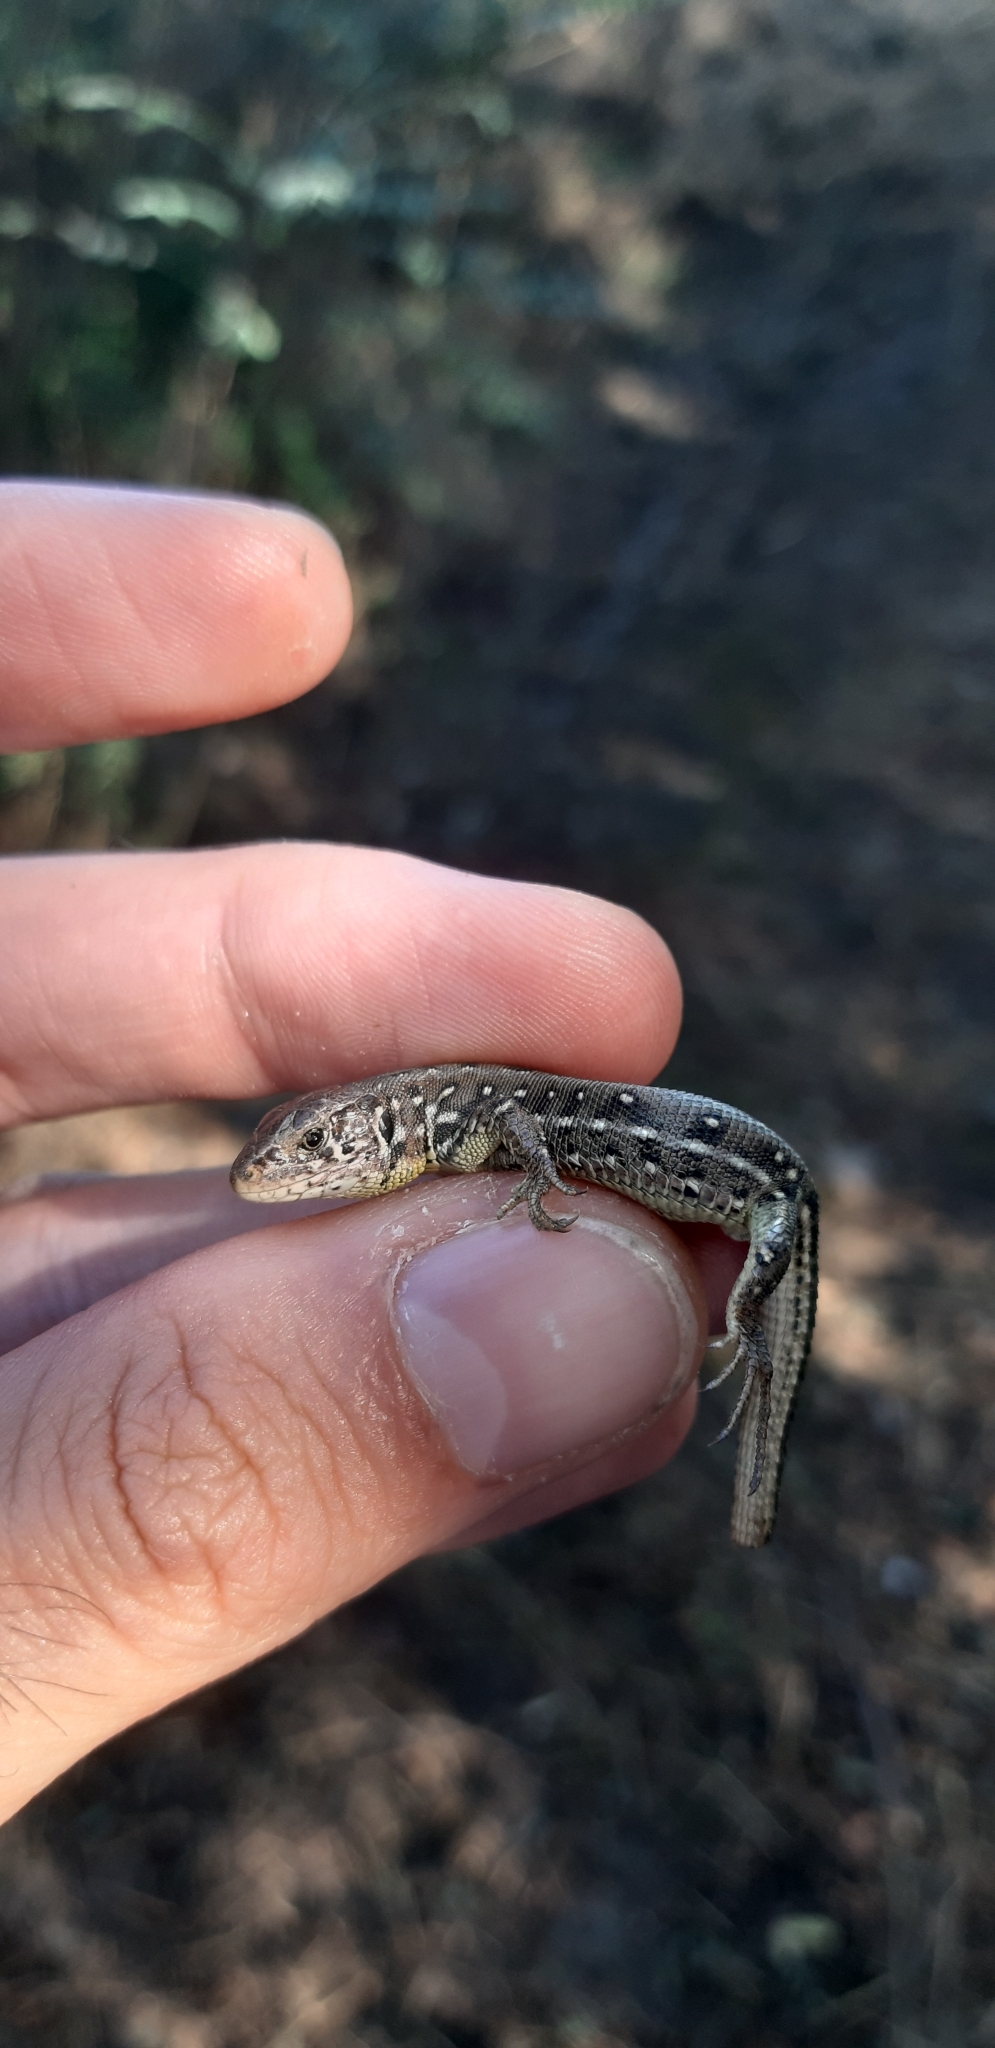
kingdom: Animalia
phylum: Chordata
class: Squamata
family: Lacertidae
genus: Lacerta
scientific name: Lacerta agilis
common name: Sand lizard
